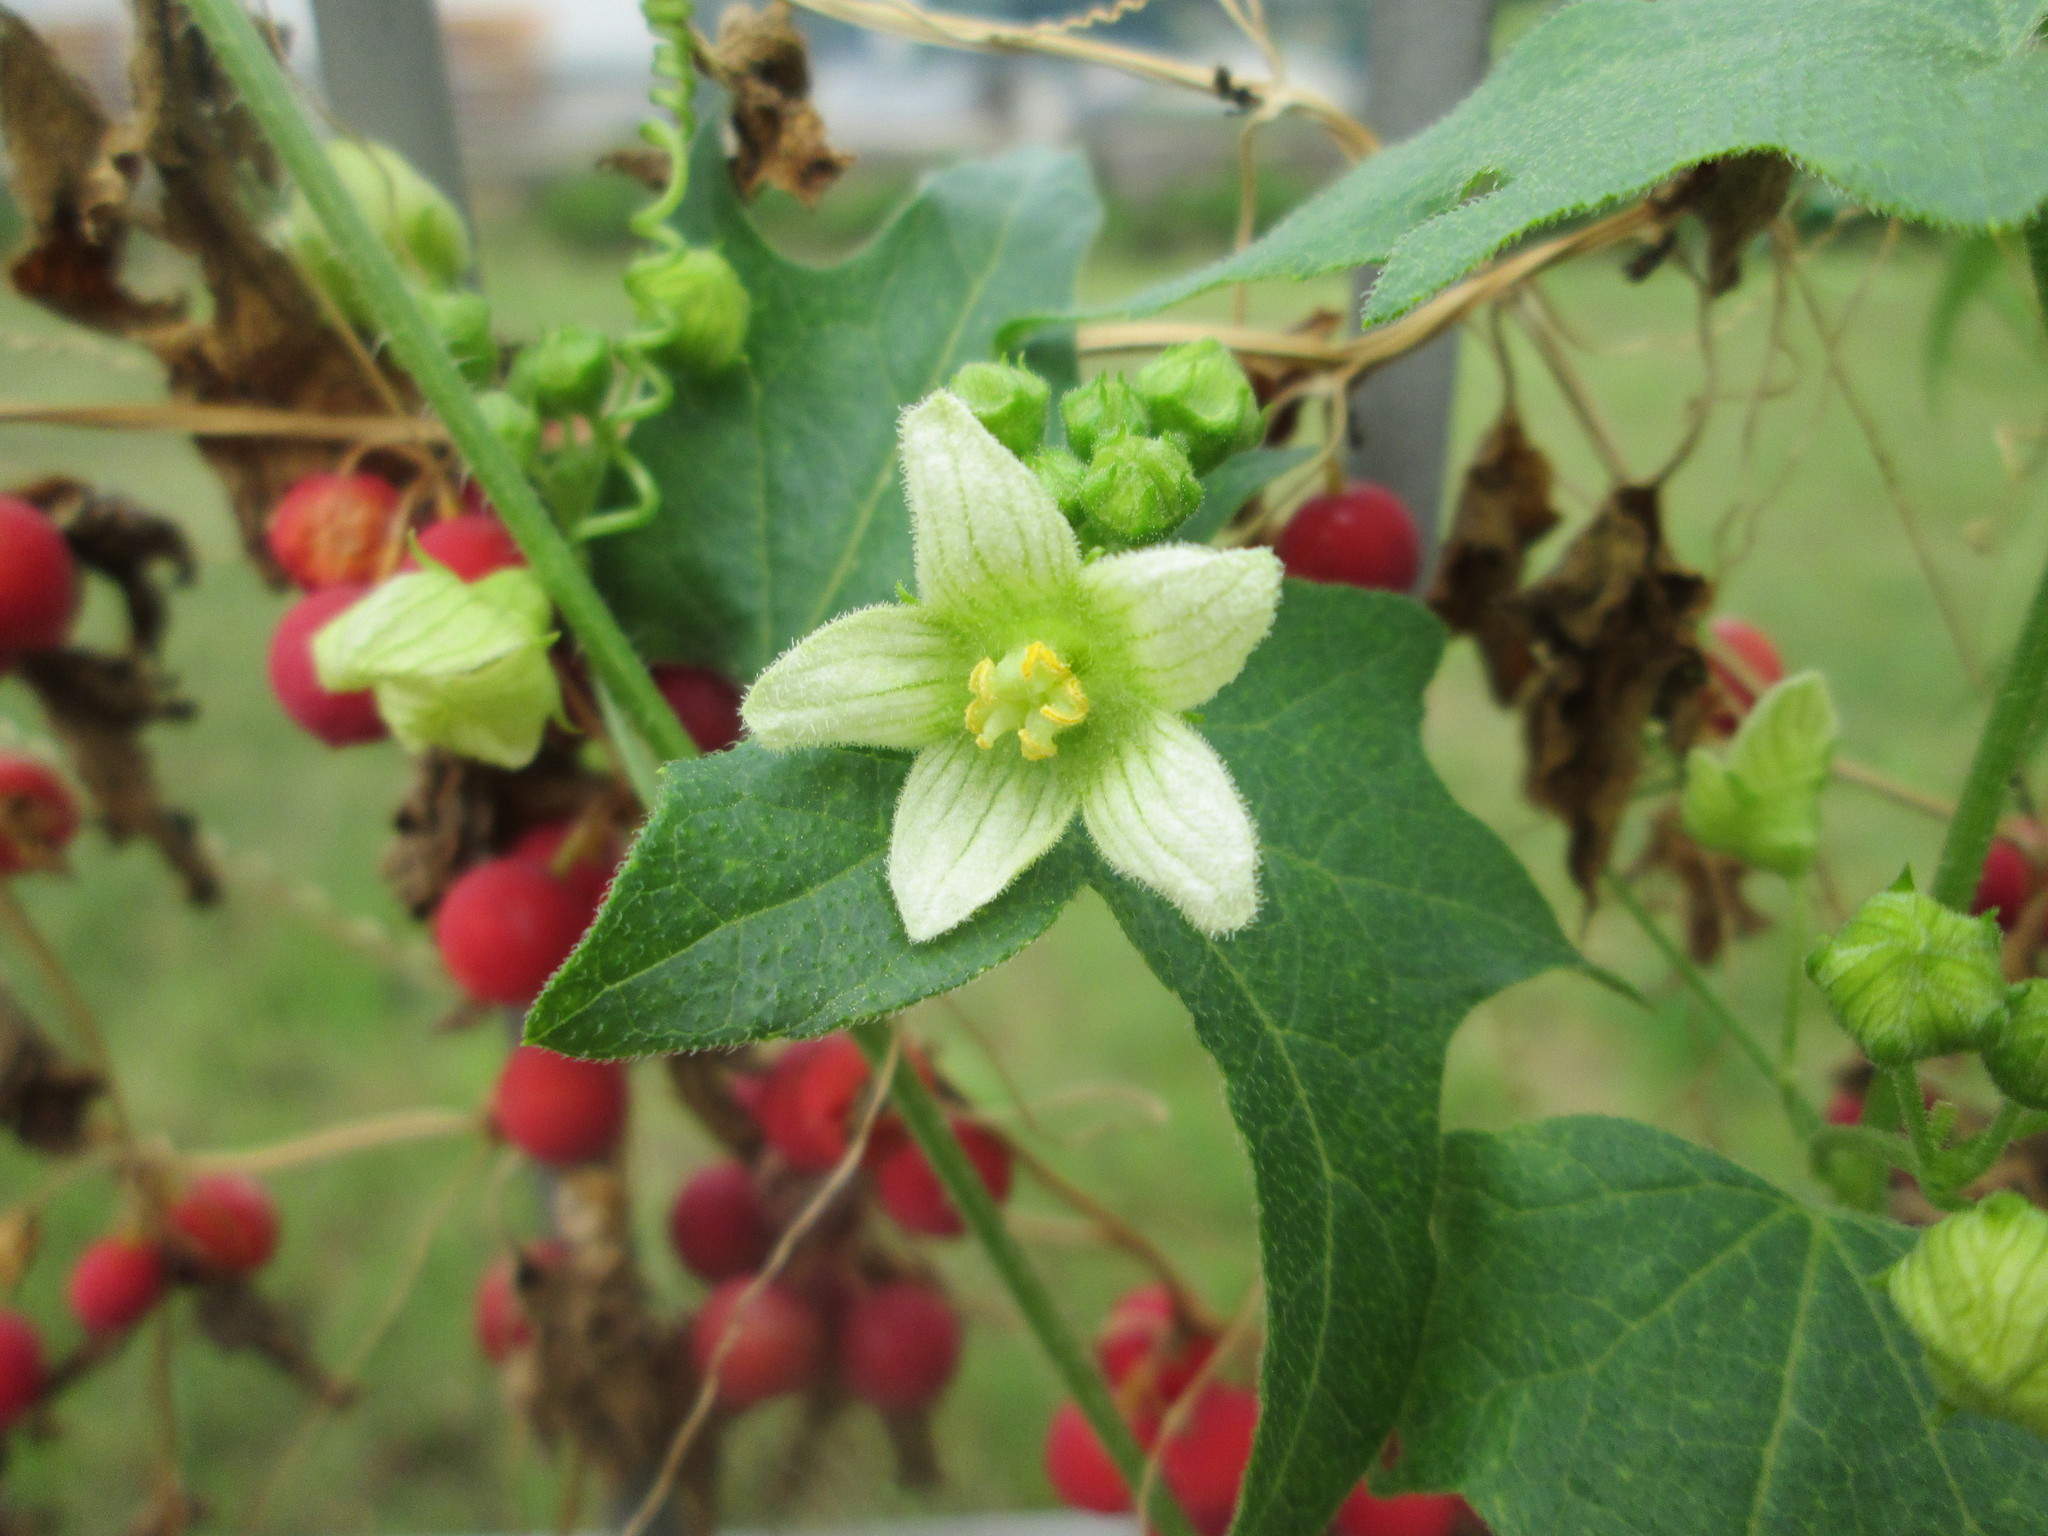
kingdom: Plantae
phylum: Tracheophyta
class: Magnoliopsida
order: Cucurbitales
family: Cucurbitaceae
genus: Bryonia
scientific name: Bryonia dioica
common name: White bryony
